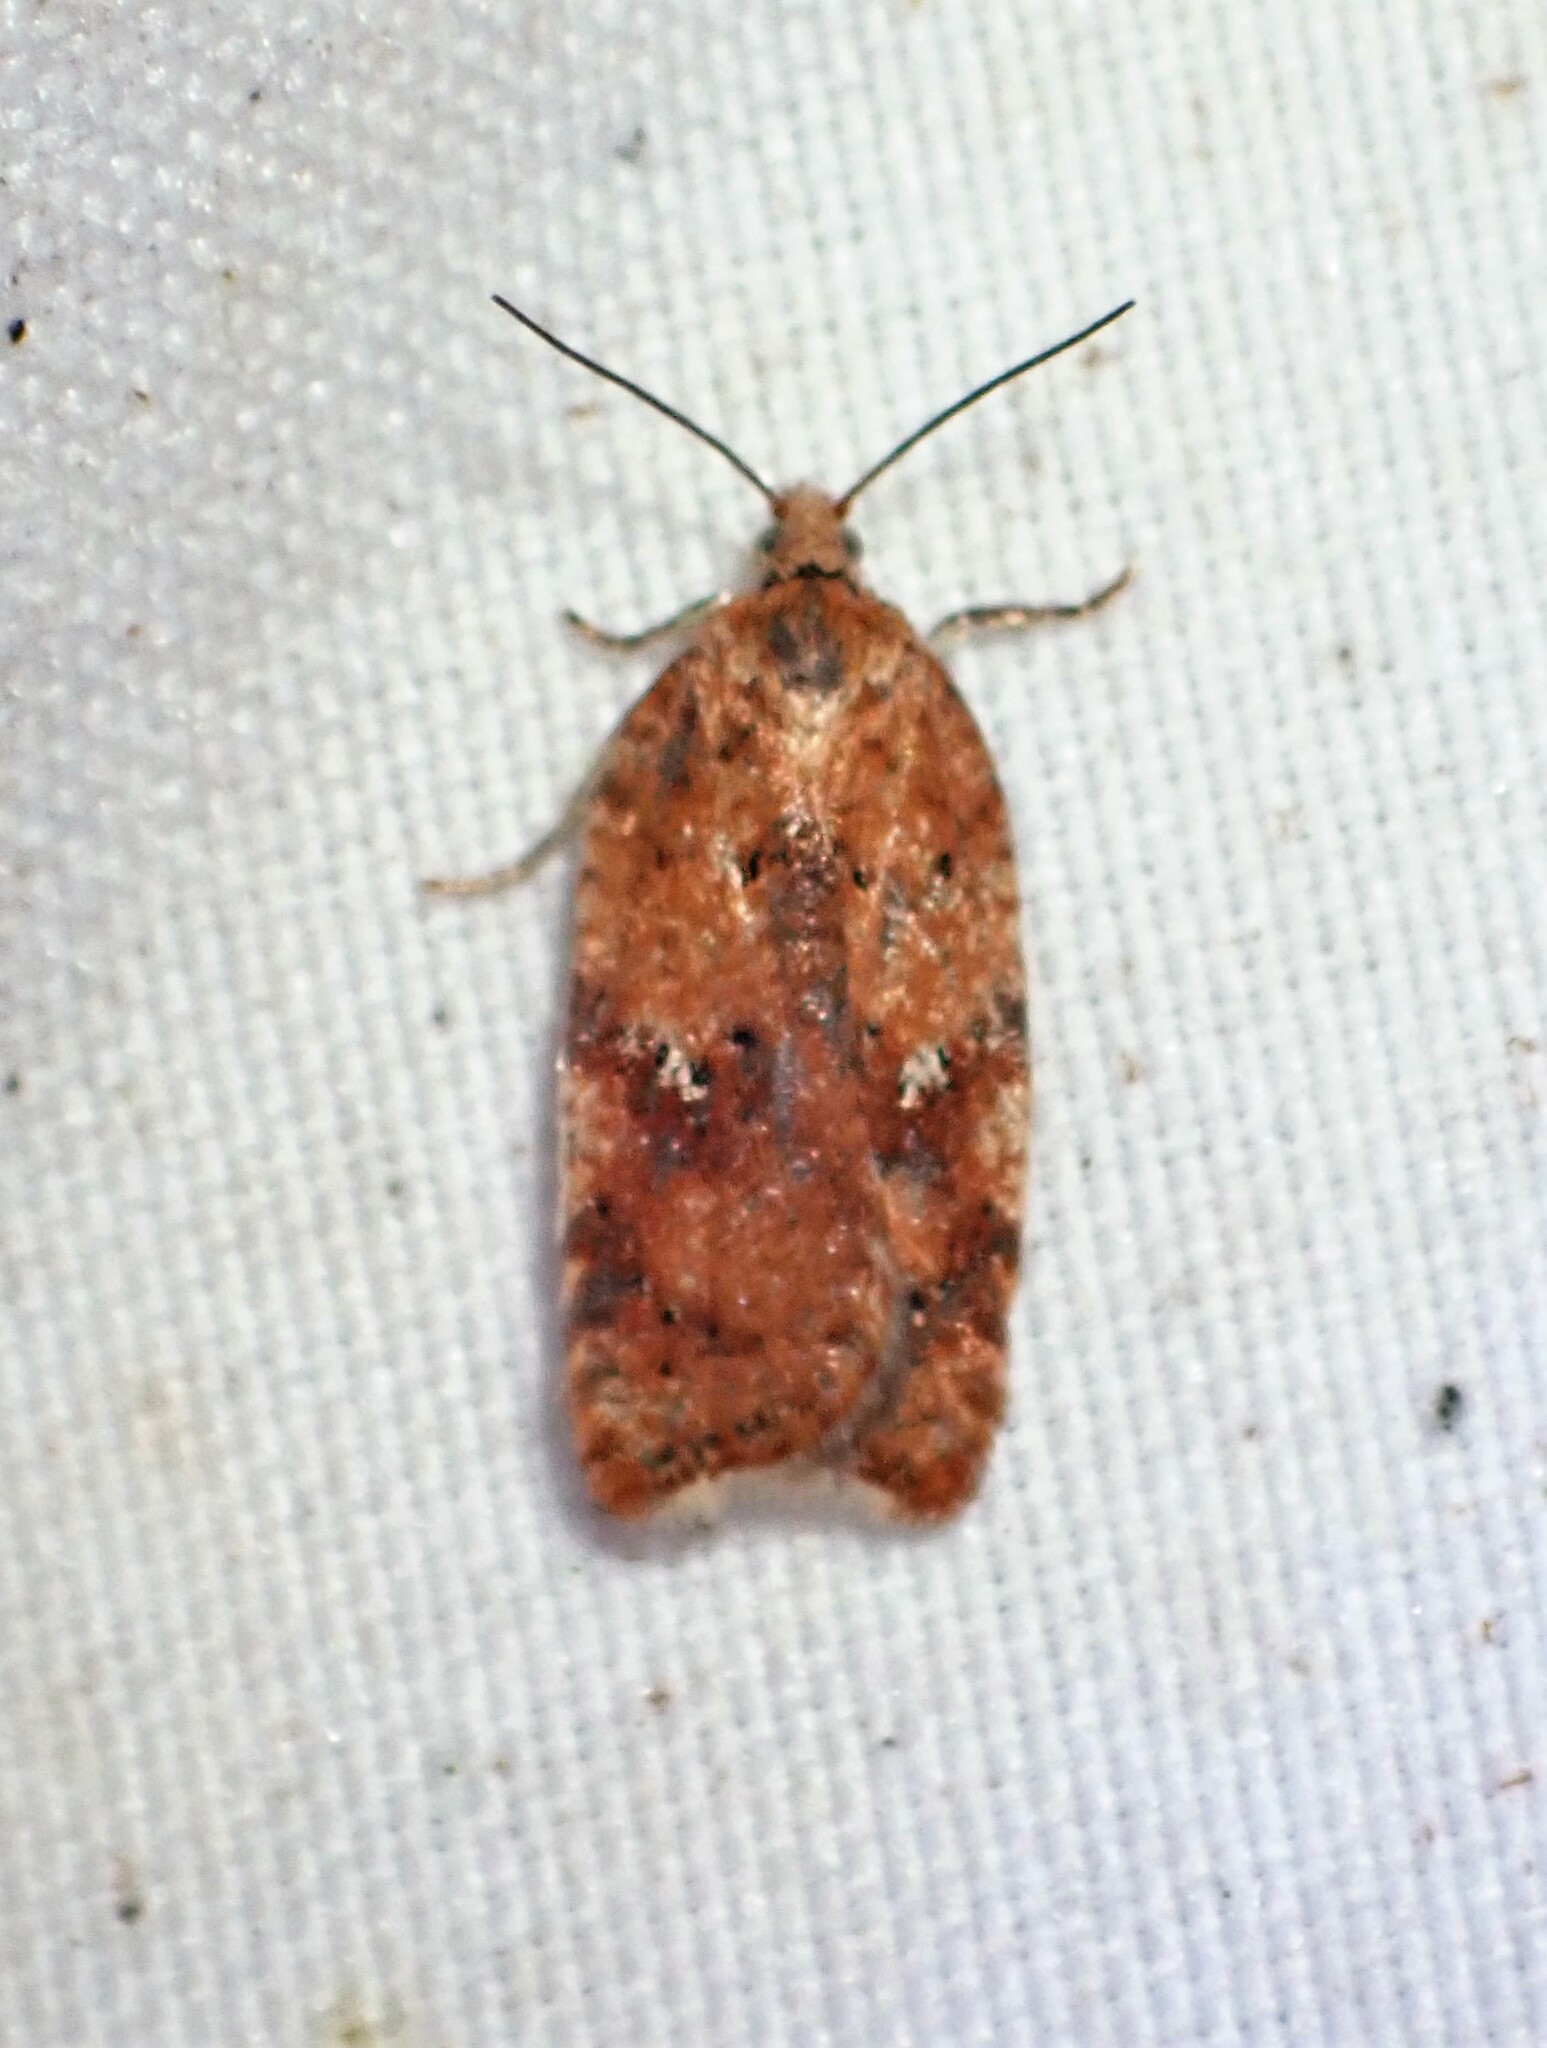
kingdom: Animalia
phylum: Arthropoda
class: Insecta
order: Lepidoptera
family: Tortricidae
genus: Acleris
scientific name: Acleris stadiana
